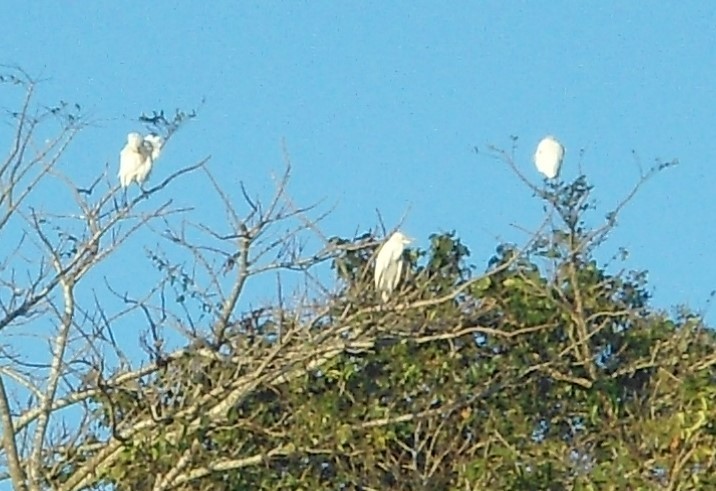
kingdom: Animalia
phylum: Chordata
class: Aves
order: Pelecaniformes
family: Ardeidae
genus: Bubulcus
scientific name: Bubulcus ibis
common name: Cattle egret
